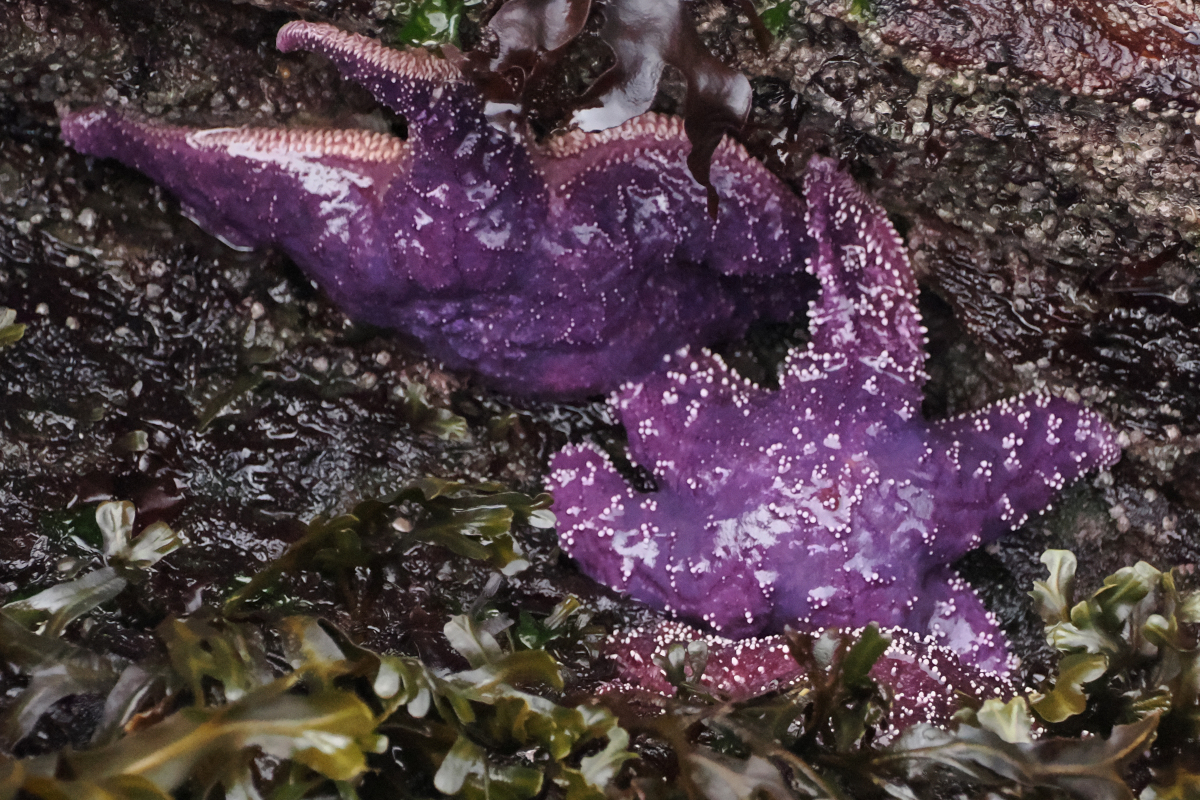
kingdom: Animalia
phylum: Echinodermata
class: Asteroidea
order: Forcipulatida
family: Asteriidae
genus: Pisaster
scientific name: Pisaster ochraceus
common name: Ochre stars
